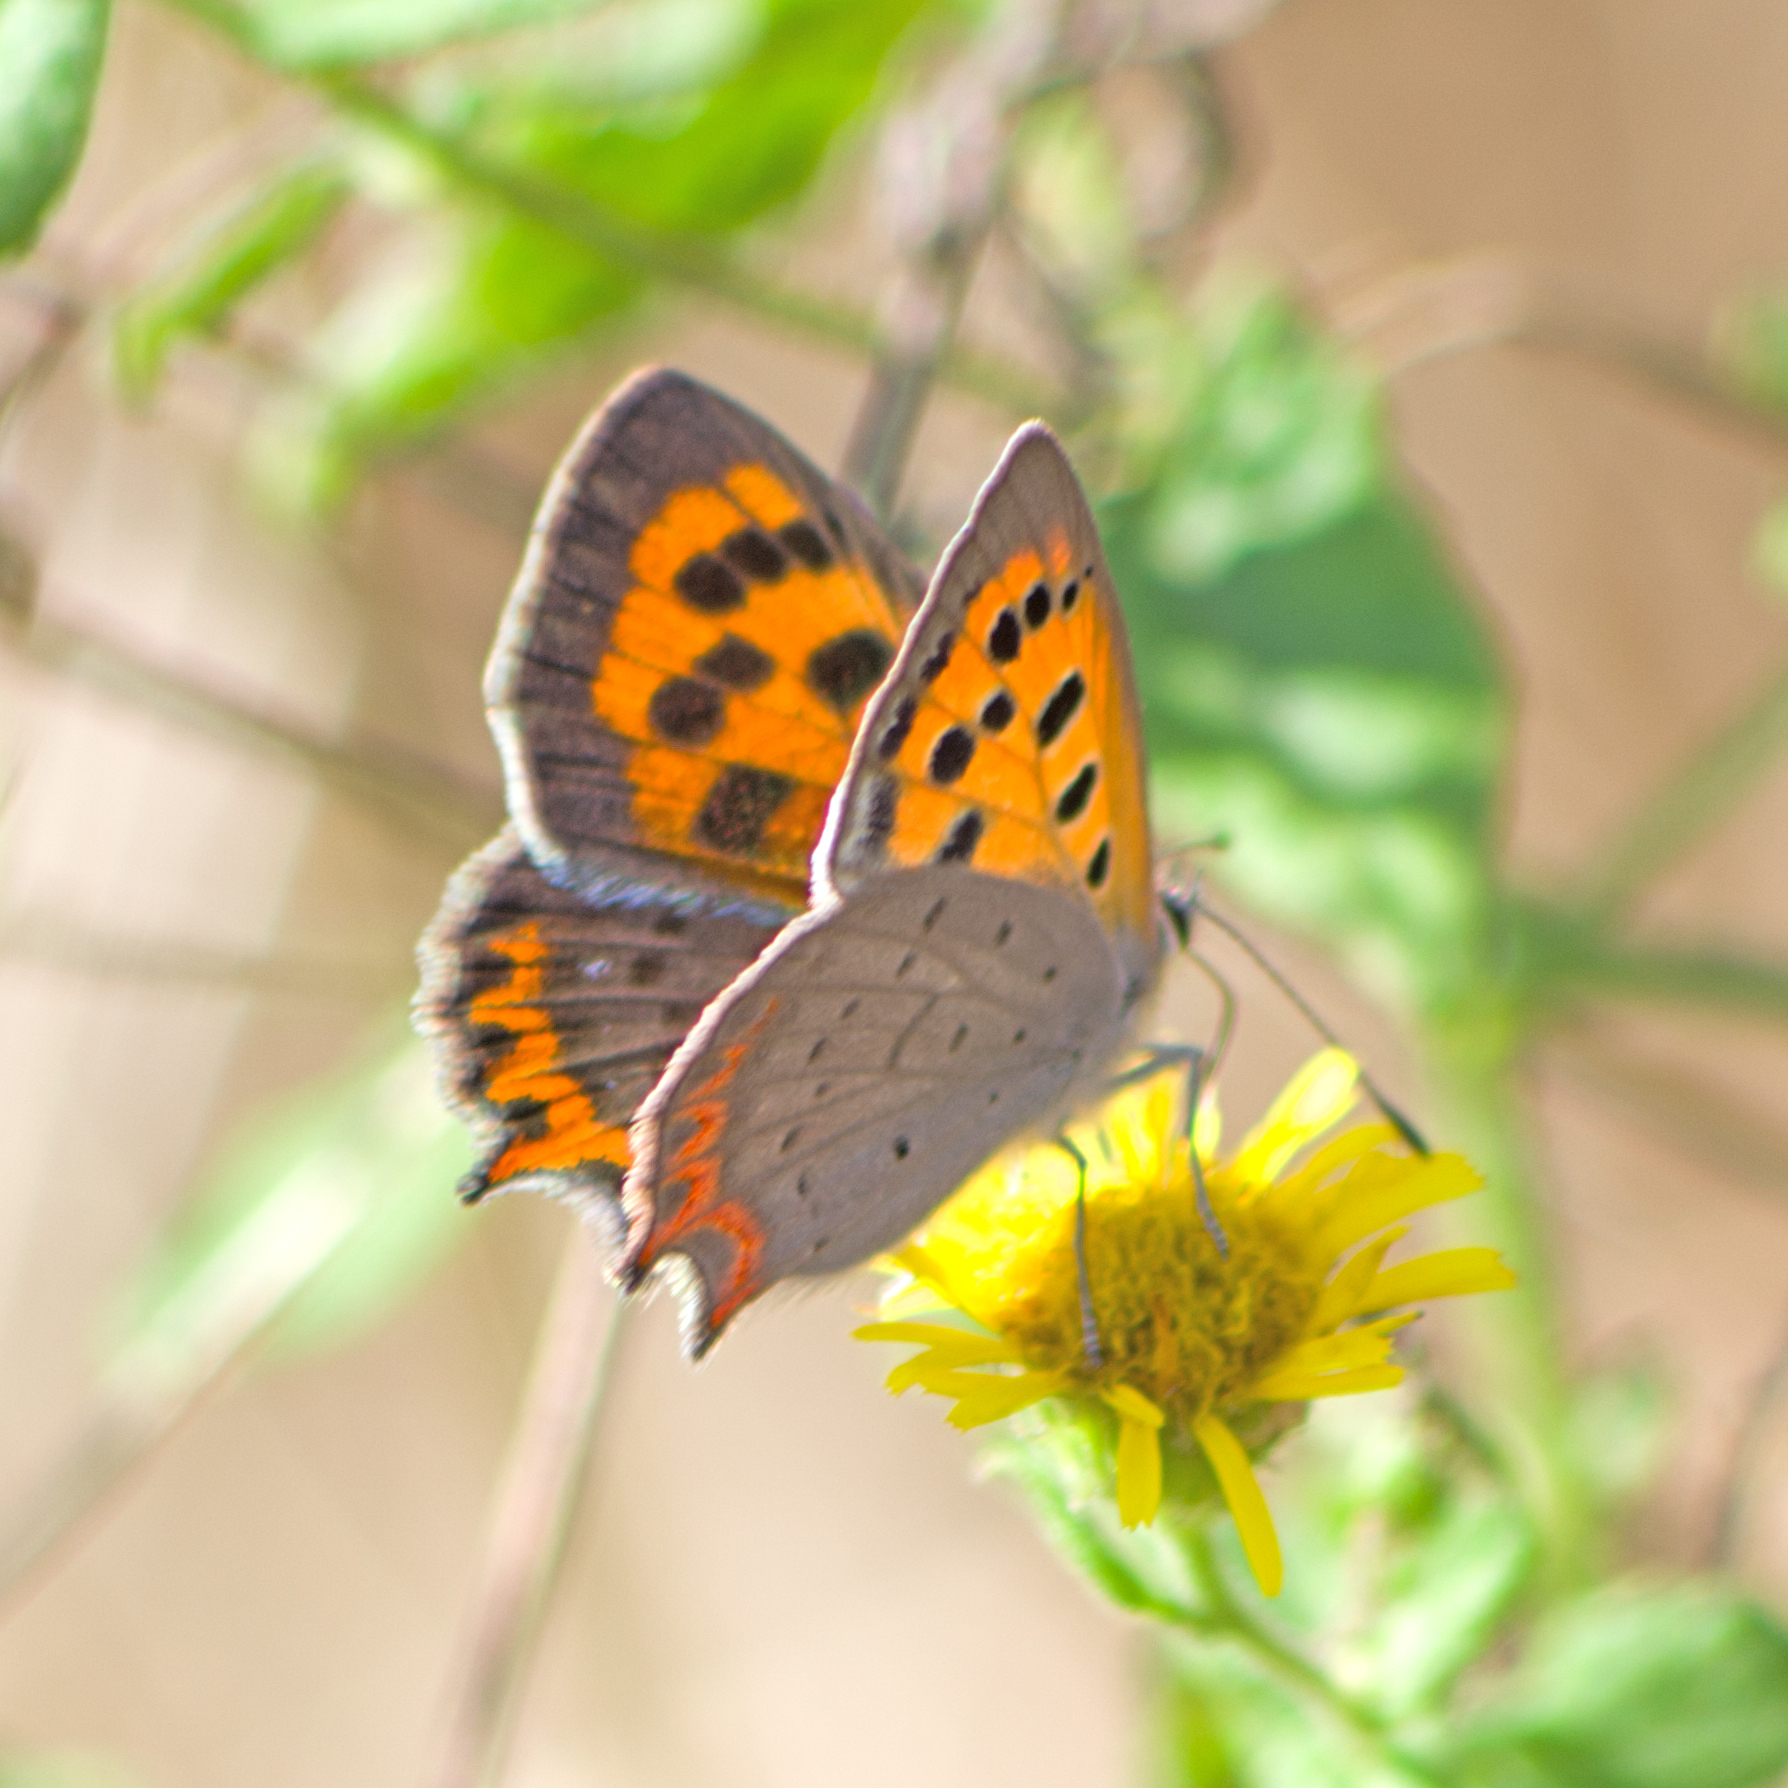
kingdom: Animalia
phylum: Arthropoda
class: Insecta
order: Lepidoptera
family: Lycaenidae
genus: Lycaena
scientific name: Lycaena phlaeas
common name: Small copper
